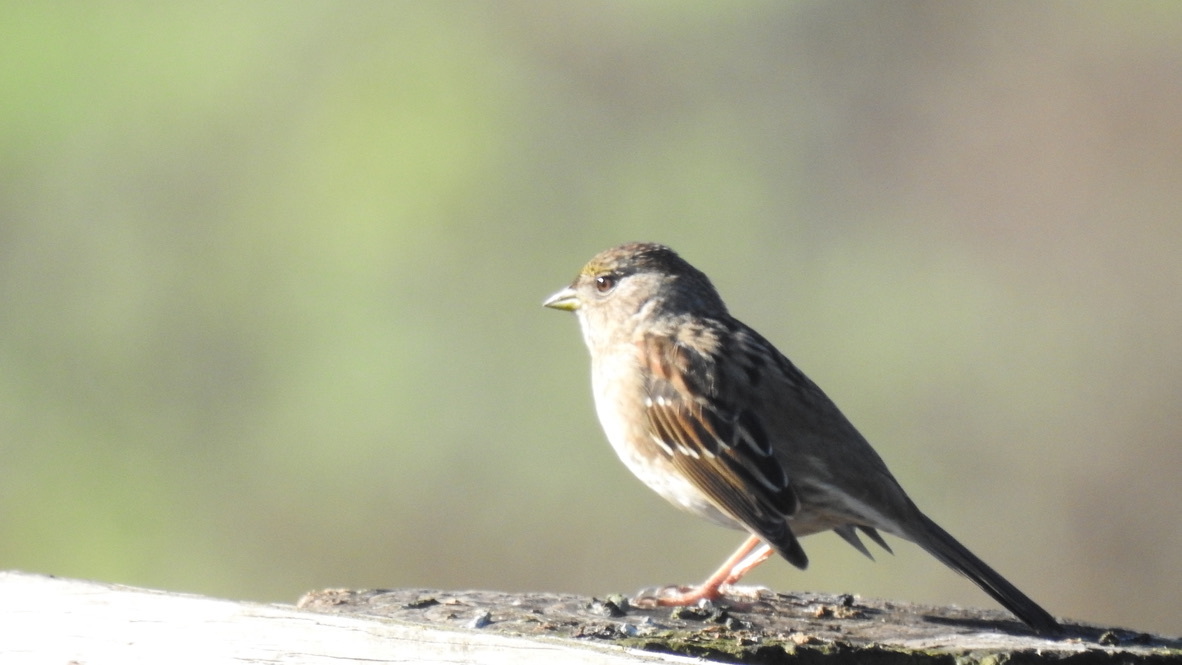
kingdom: Animalia
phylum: Chordata
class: Aves
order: Passeriformes
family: Passerellidae
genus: Zonotrichia
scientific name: Zonotrichia atricapilla
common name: Golden-crowned sparrow
